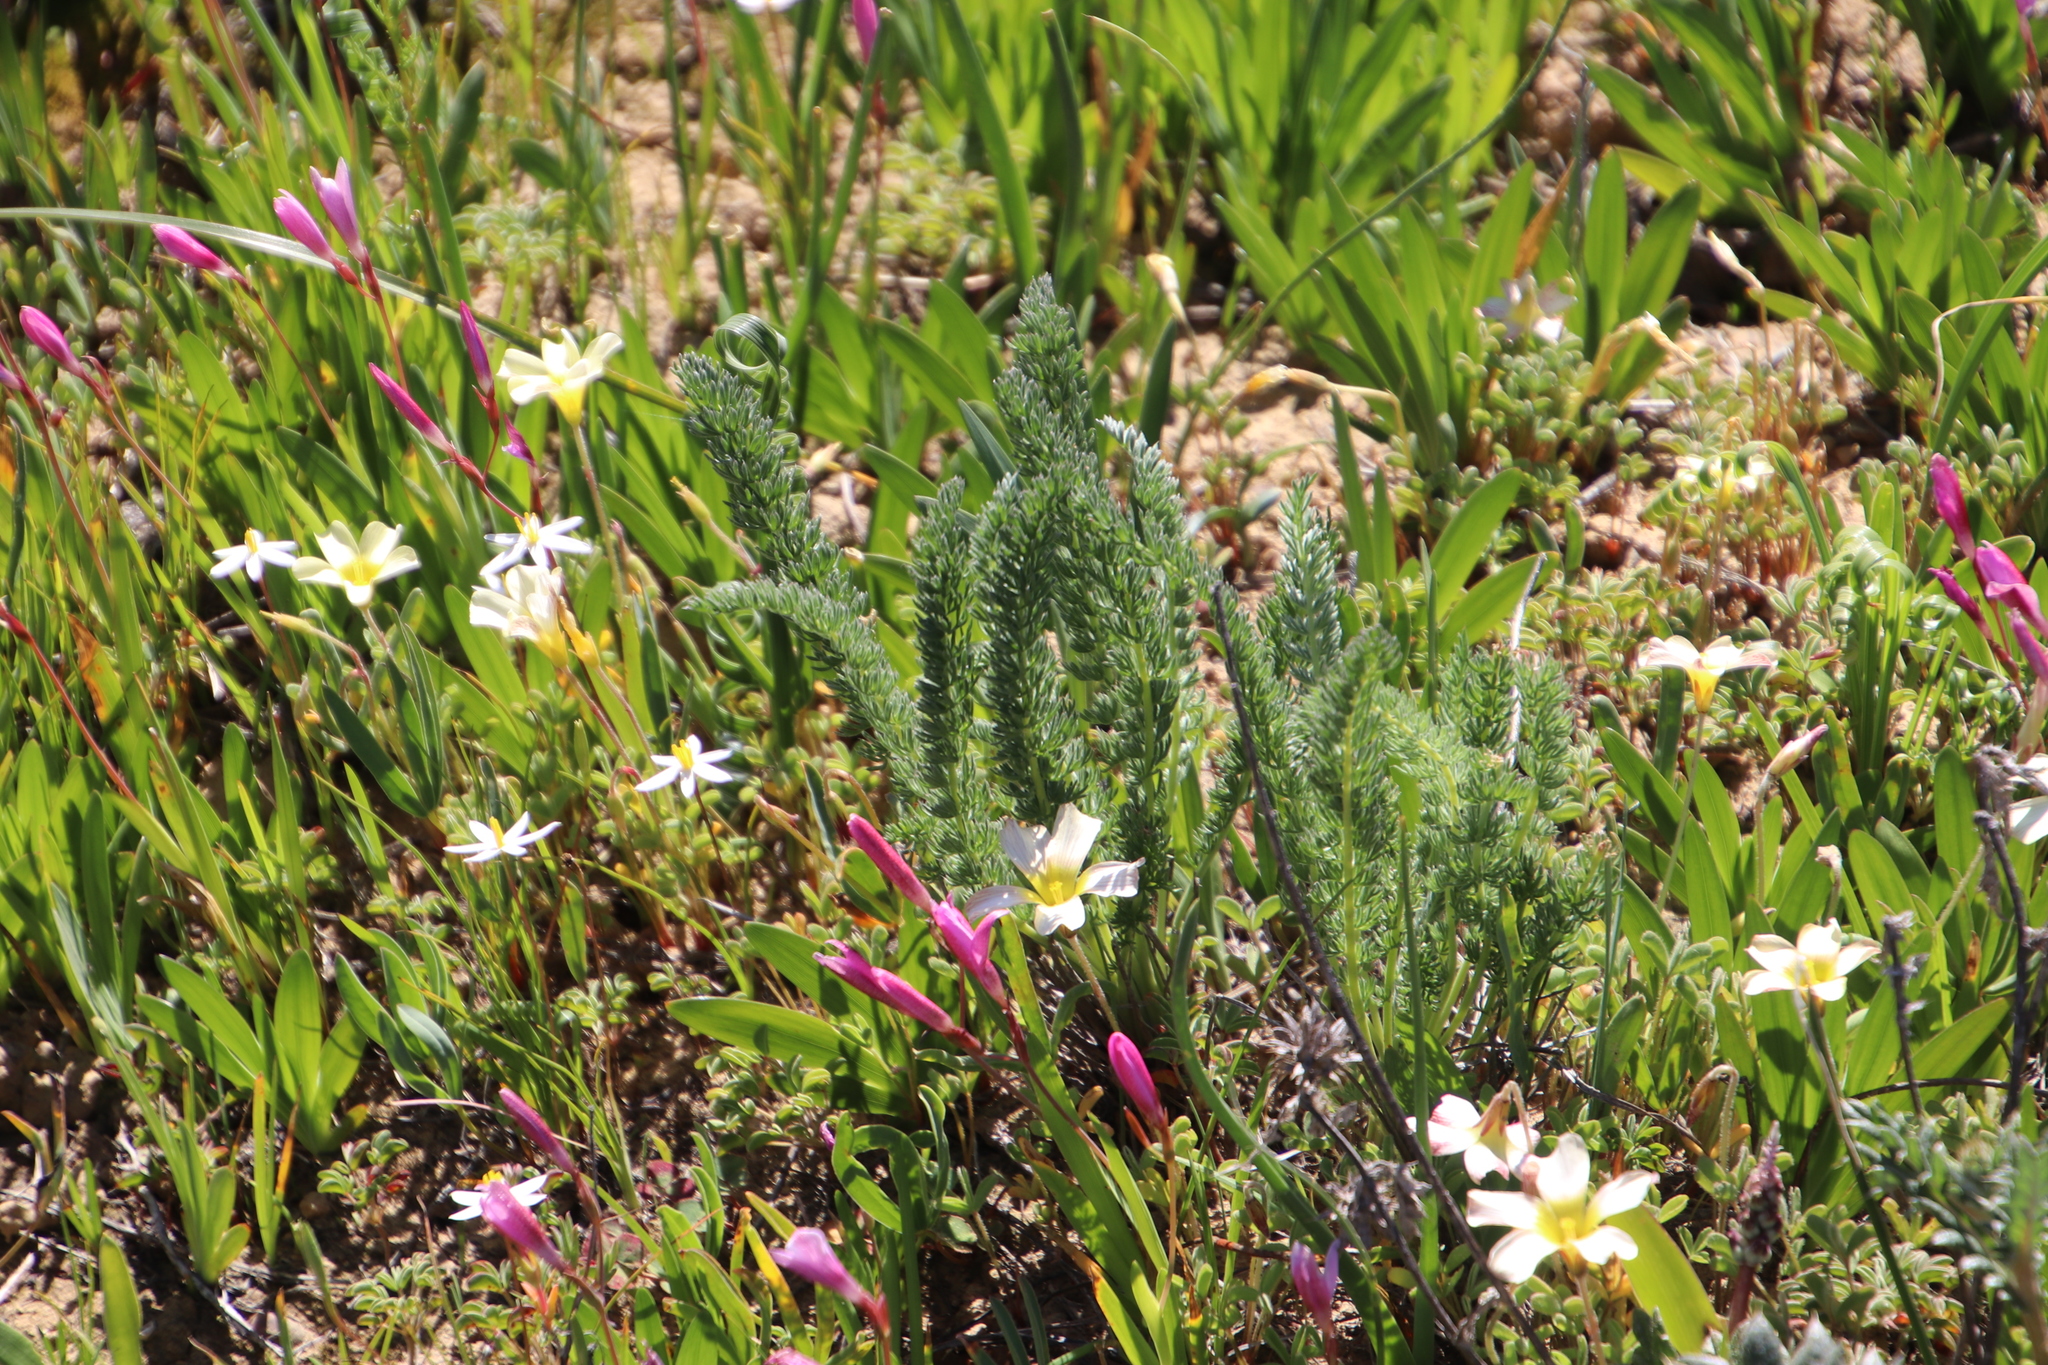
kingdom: Plantae
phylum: Tracheophyta
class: Magnoliopsida
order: Oxalidales
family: Oxalidaceae
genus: Oxalis
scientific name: Oxalis obtusa
